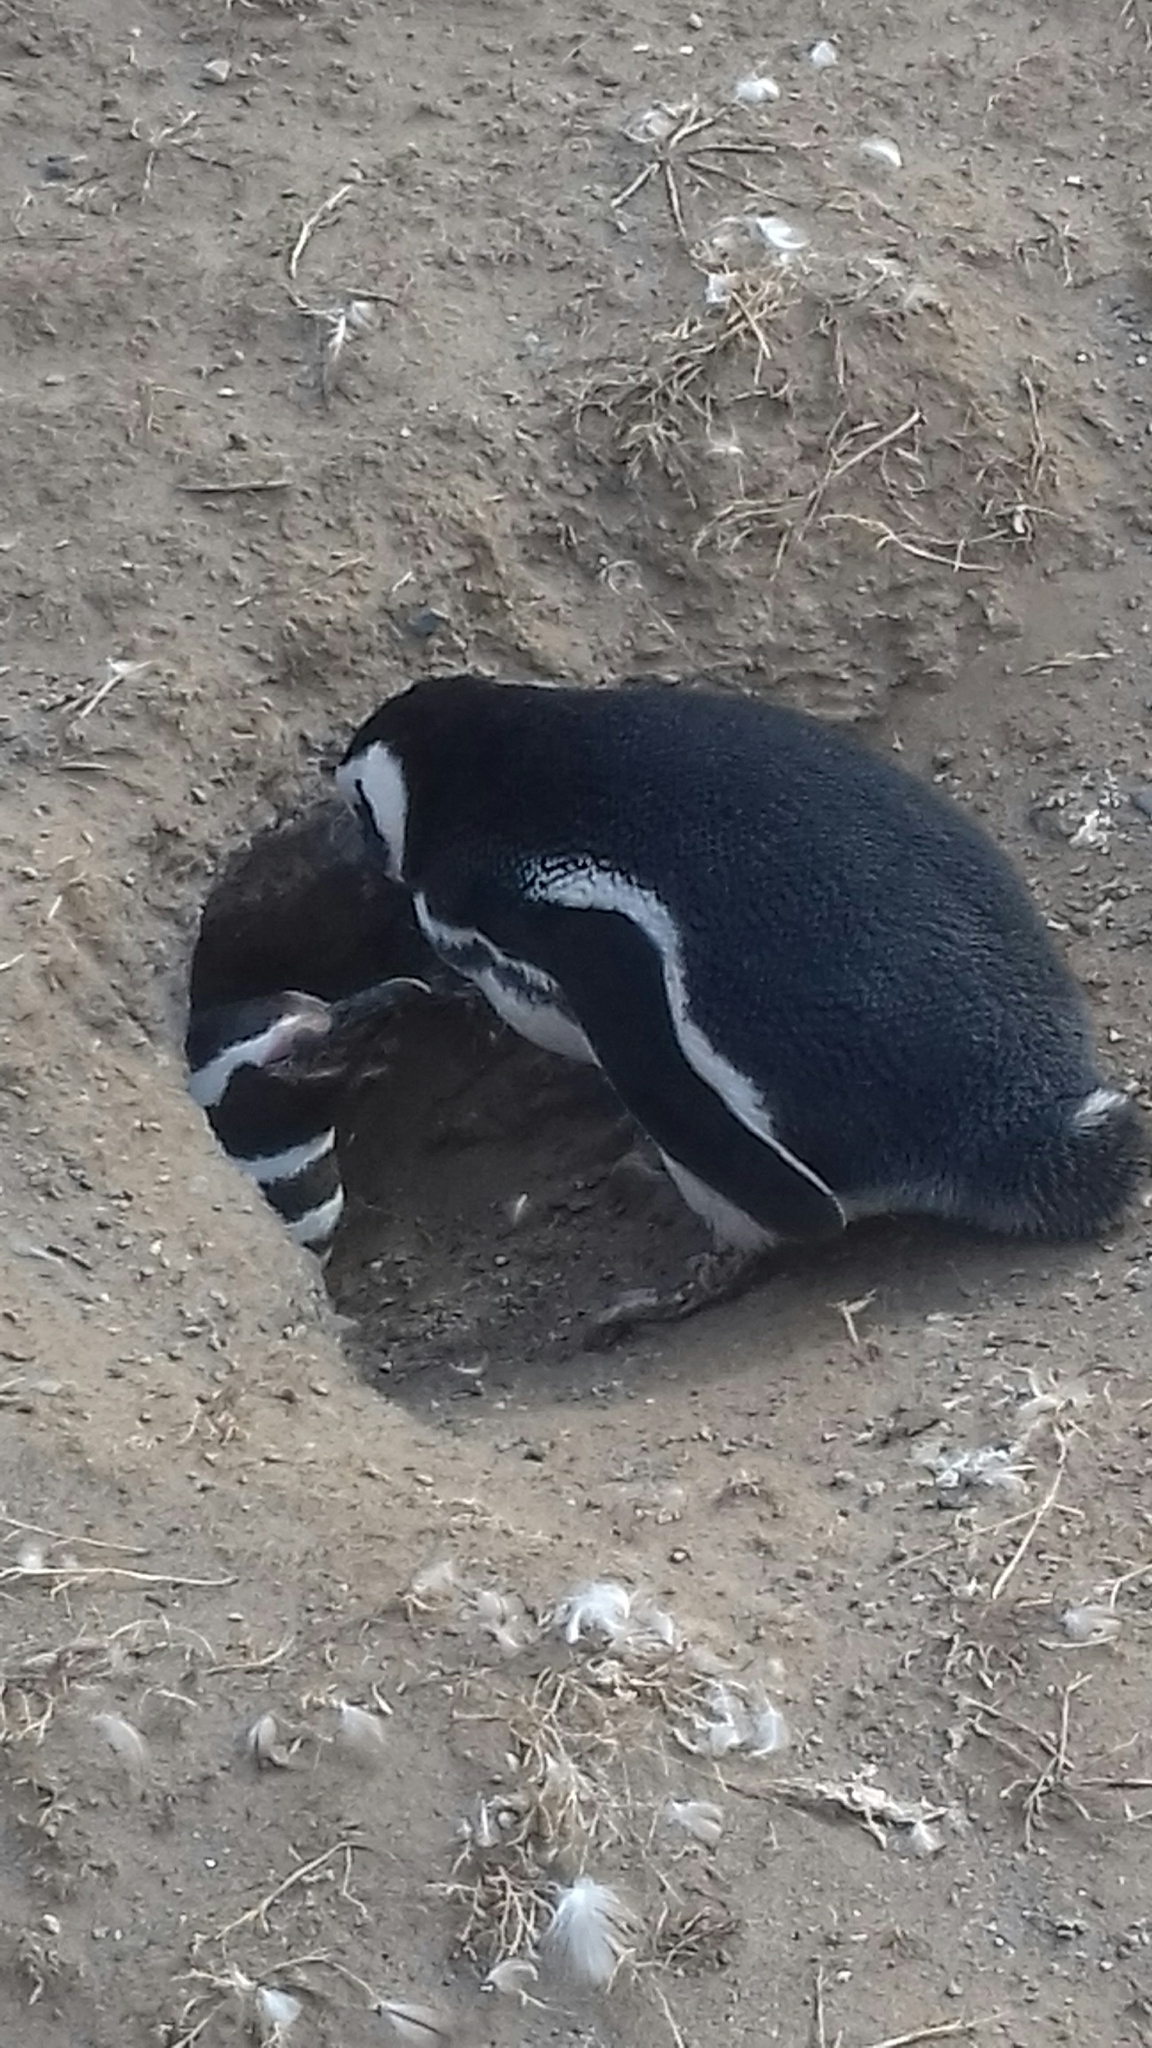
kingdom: Animalia
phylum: Chordata
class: Aves
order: Sphenisciformes
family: Spheniscidae
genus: Spheniscus
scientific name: Spheniscus magellanicus
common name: Magellanic penguin
